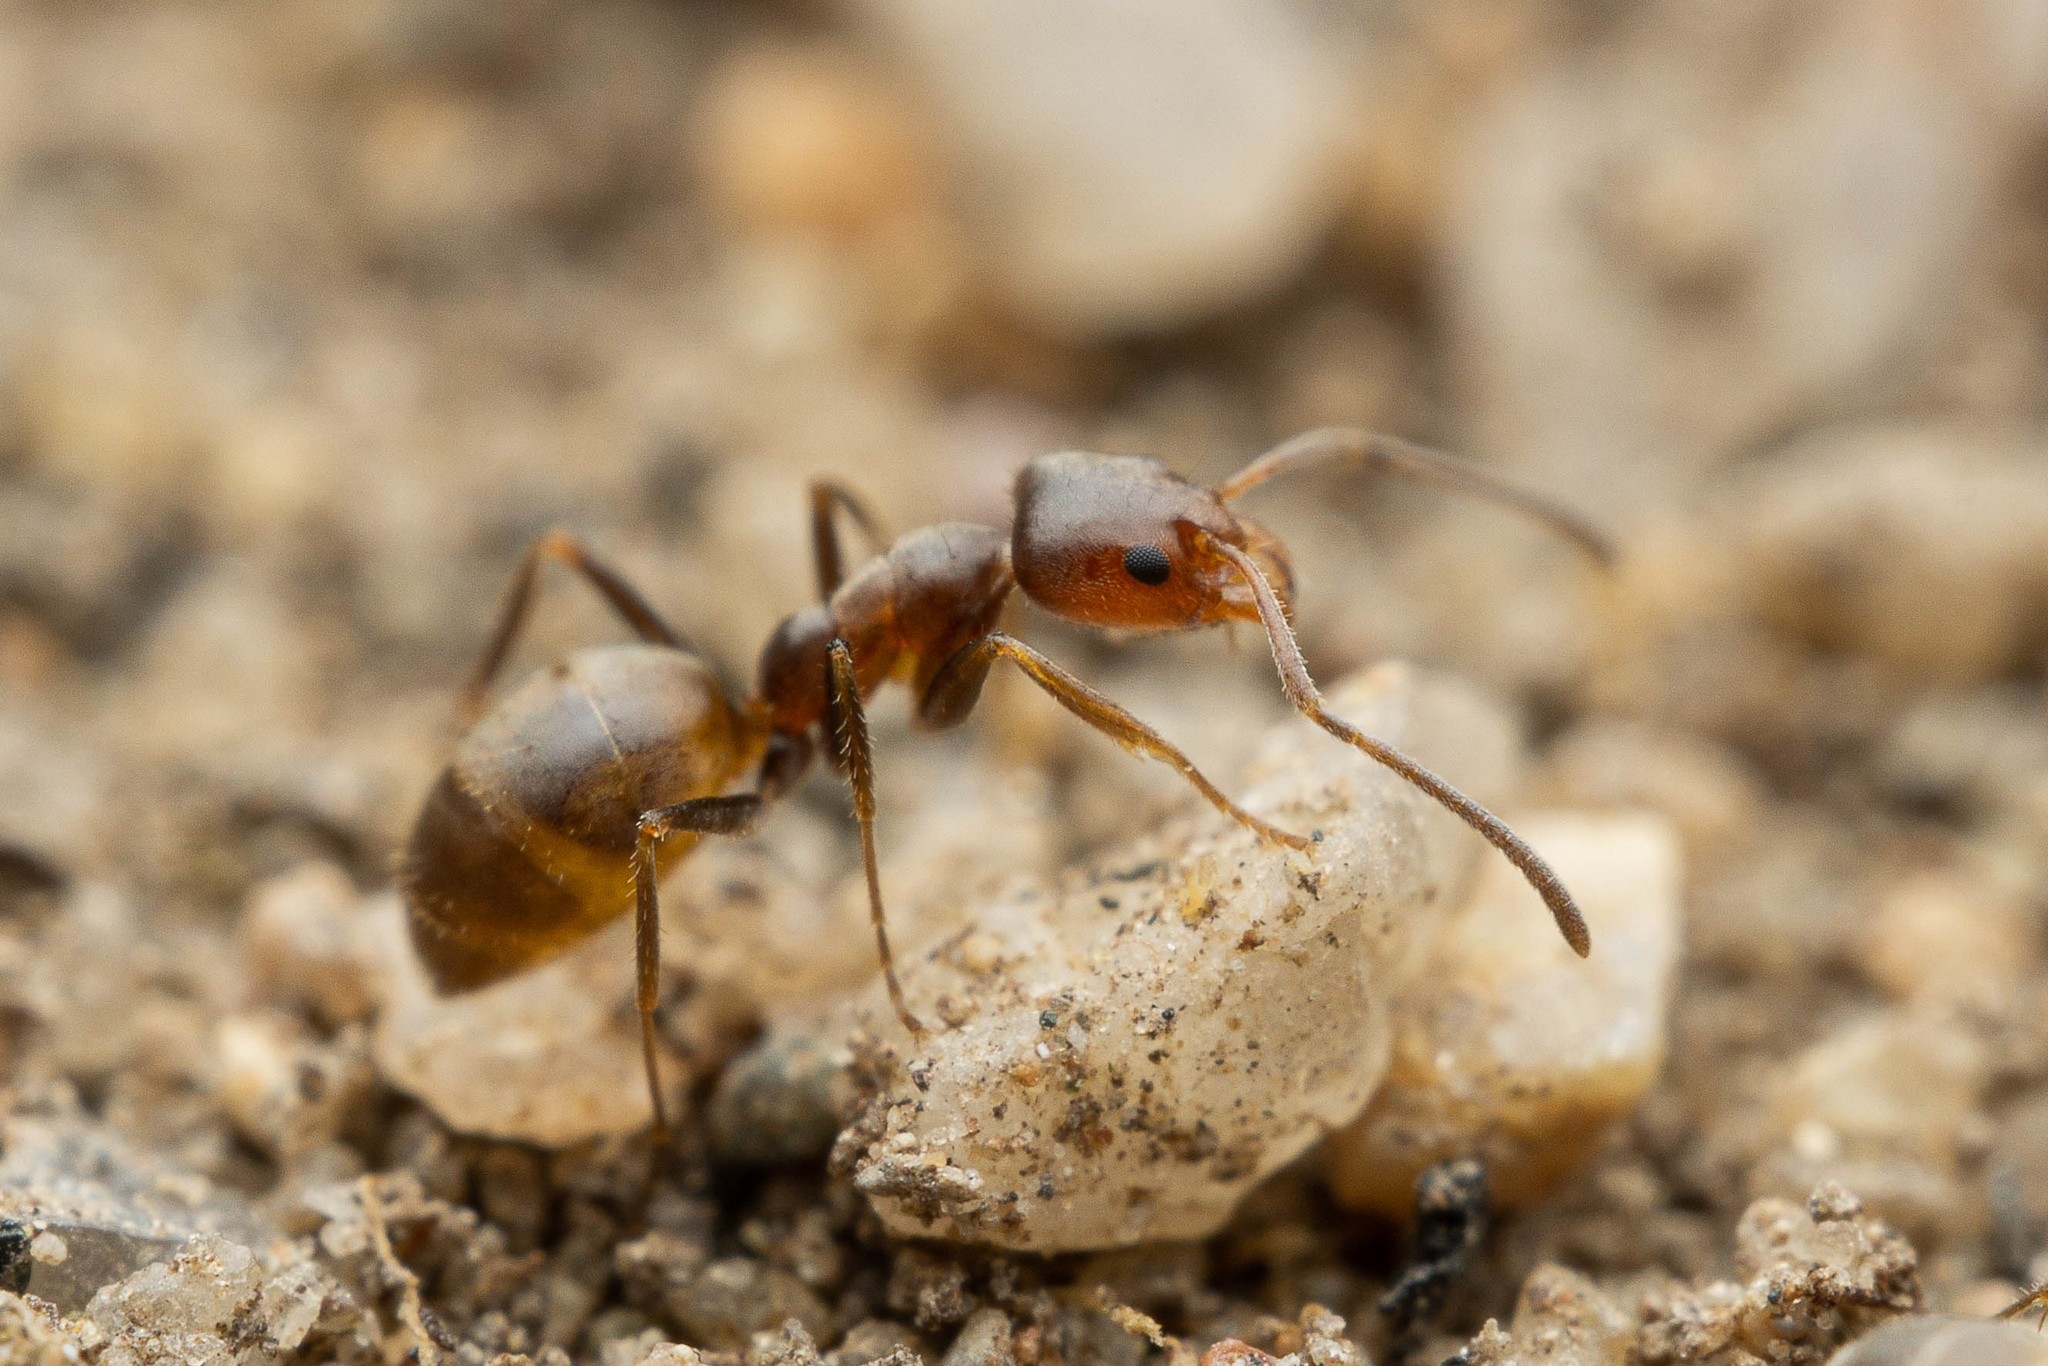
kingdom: Animalia
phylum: Arthropoda
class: Insecta
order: Hymenoptera
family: Formicidae
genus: Forelius
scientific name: Forelius mccooki
